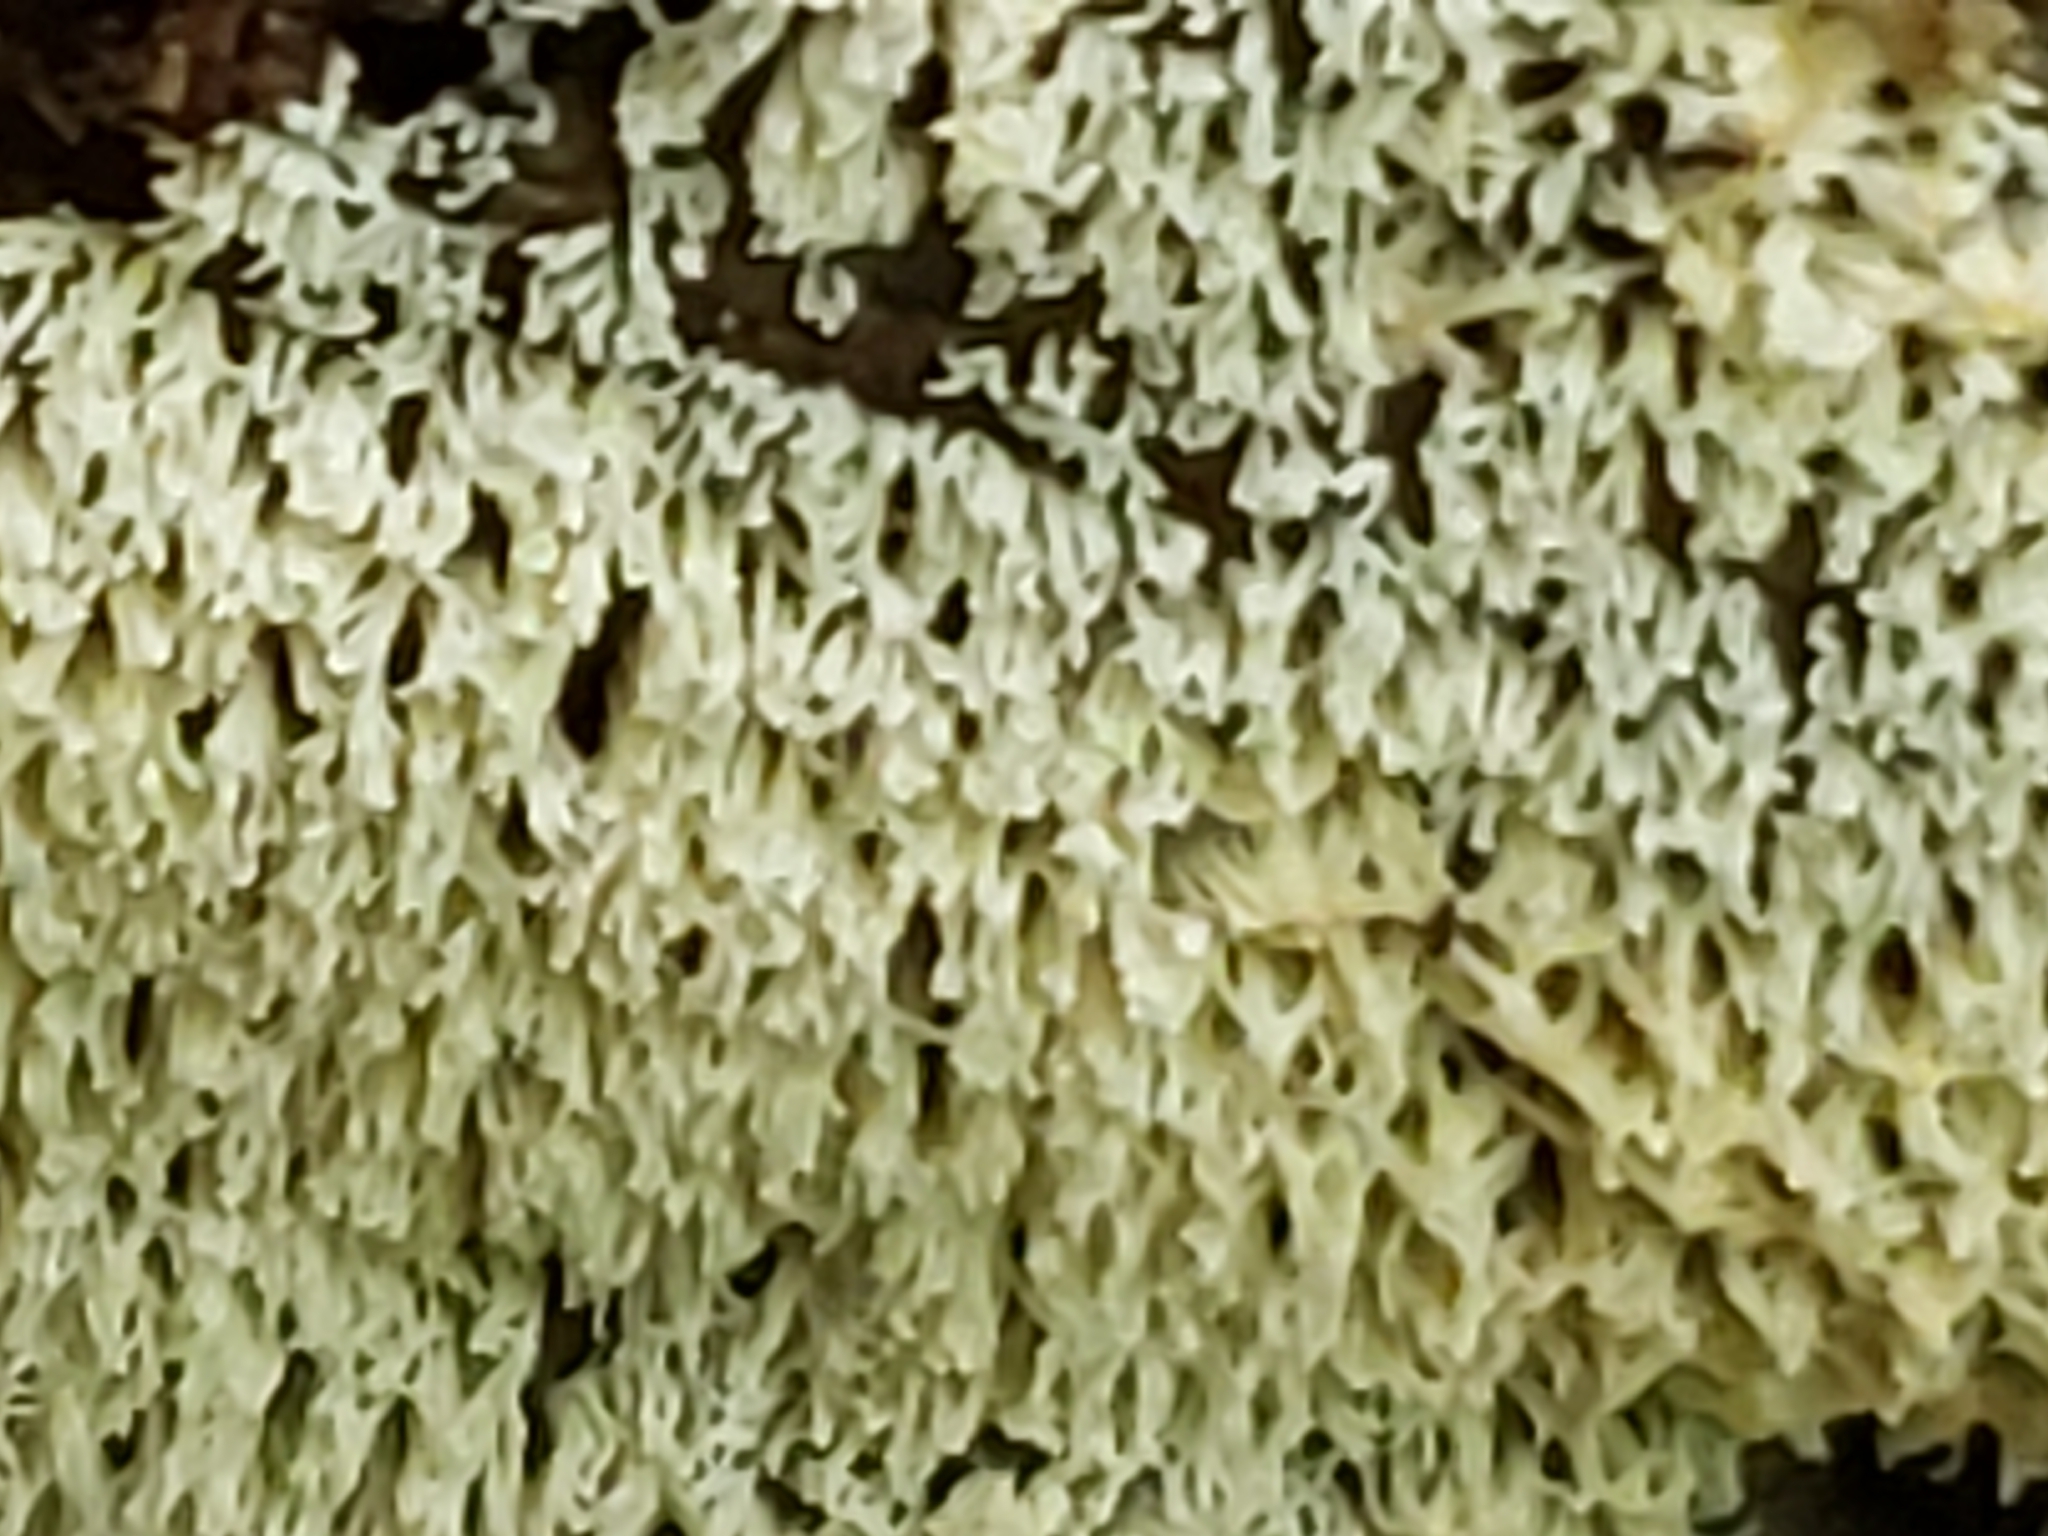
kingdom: Protozoa
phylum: Mycetozoa
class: Protosteliomycetes
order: Ceratiomyxales
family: Ceratiomyxaceae
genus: Ceratiomyxa
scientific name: Ceratiomyxa fruticulosa
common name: Honeycomb coral slime mold
